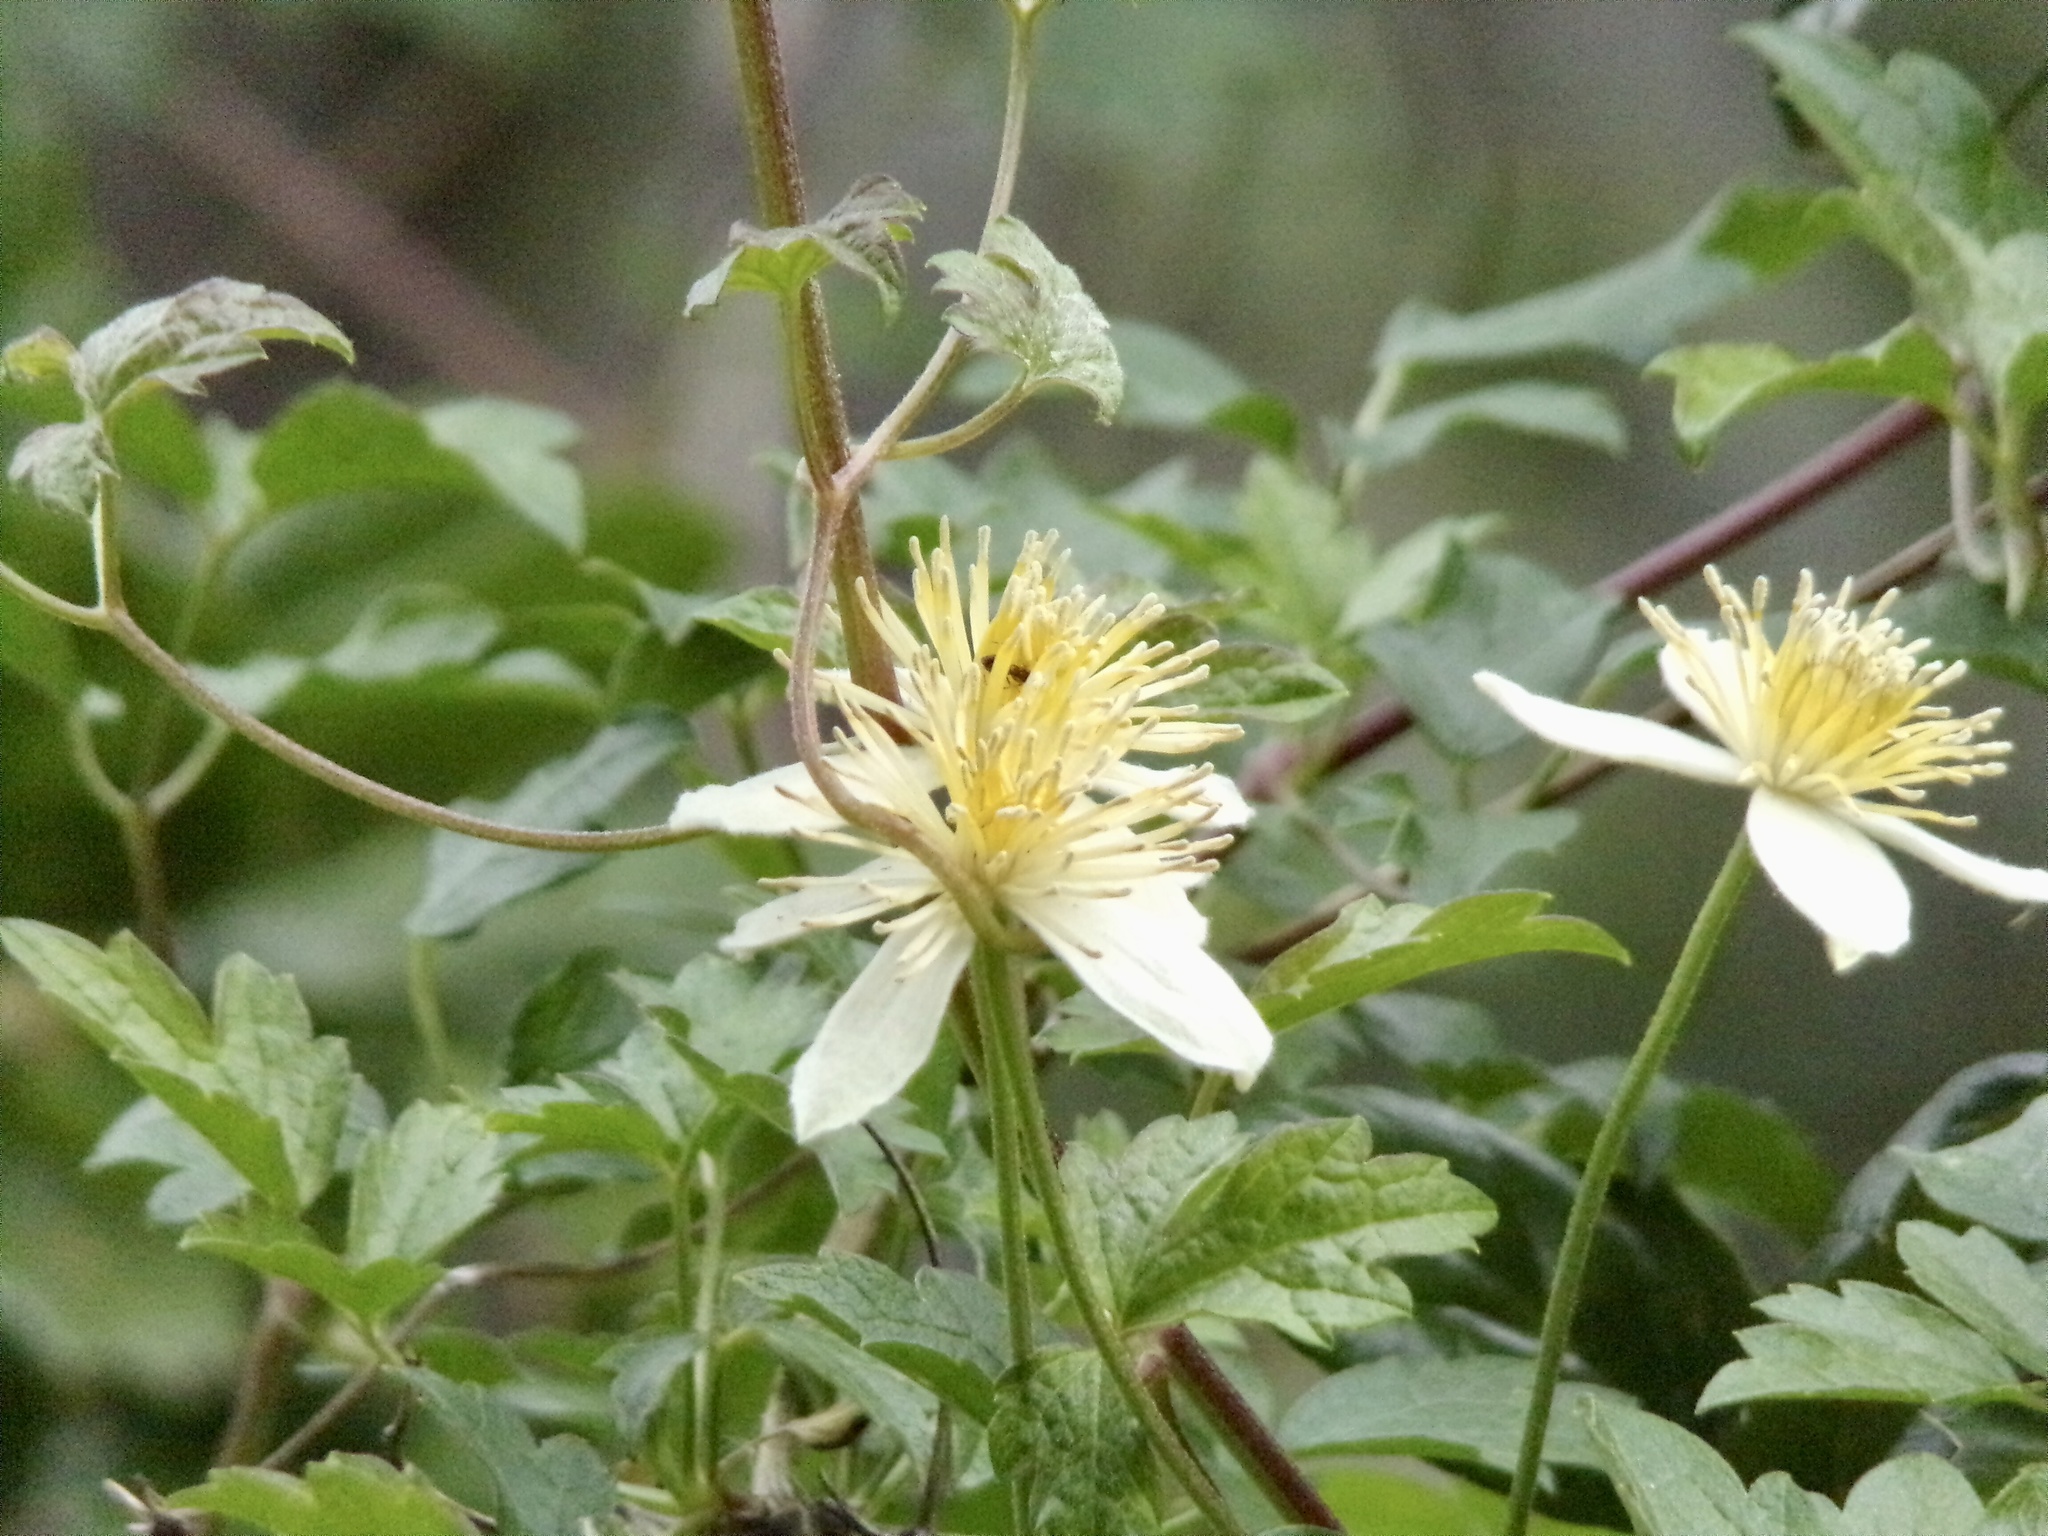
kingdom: Plantae
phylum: Tracheophyta
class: Magnoliopsida
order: Ranunculales
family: Ranunculaceae
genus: Clematis
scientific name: Clematis lasiantha
